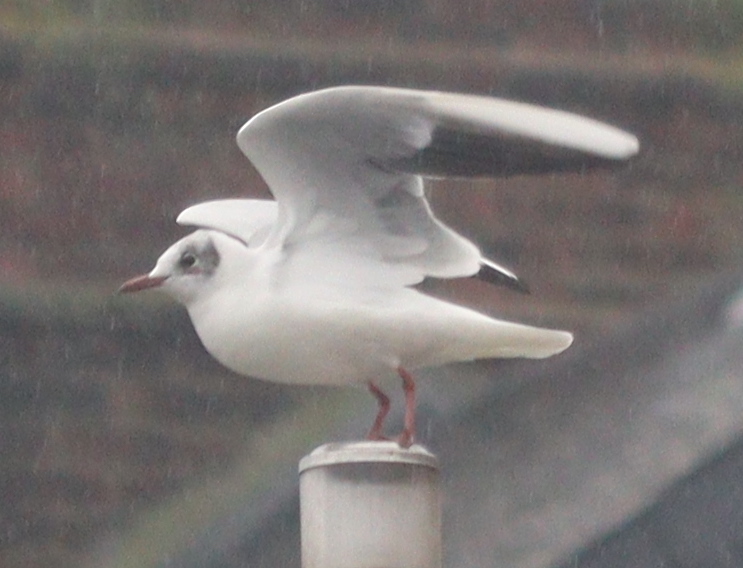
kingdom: Animalia
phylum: Chordata
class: Aves
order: Charadriiformes
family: Laridae
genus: Chroicocephalus
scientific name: Chroicocephalus ridibundus
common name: Black-headed gull
